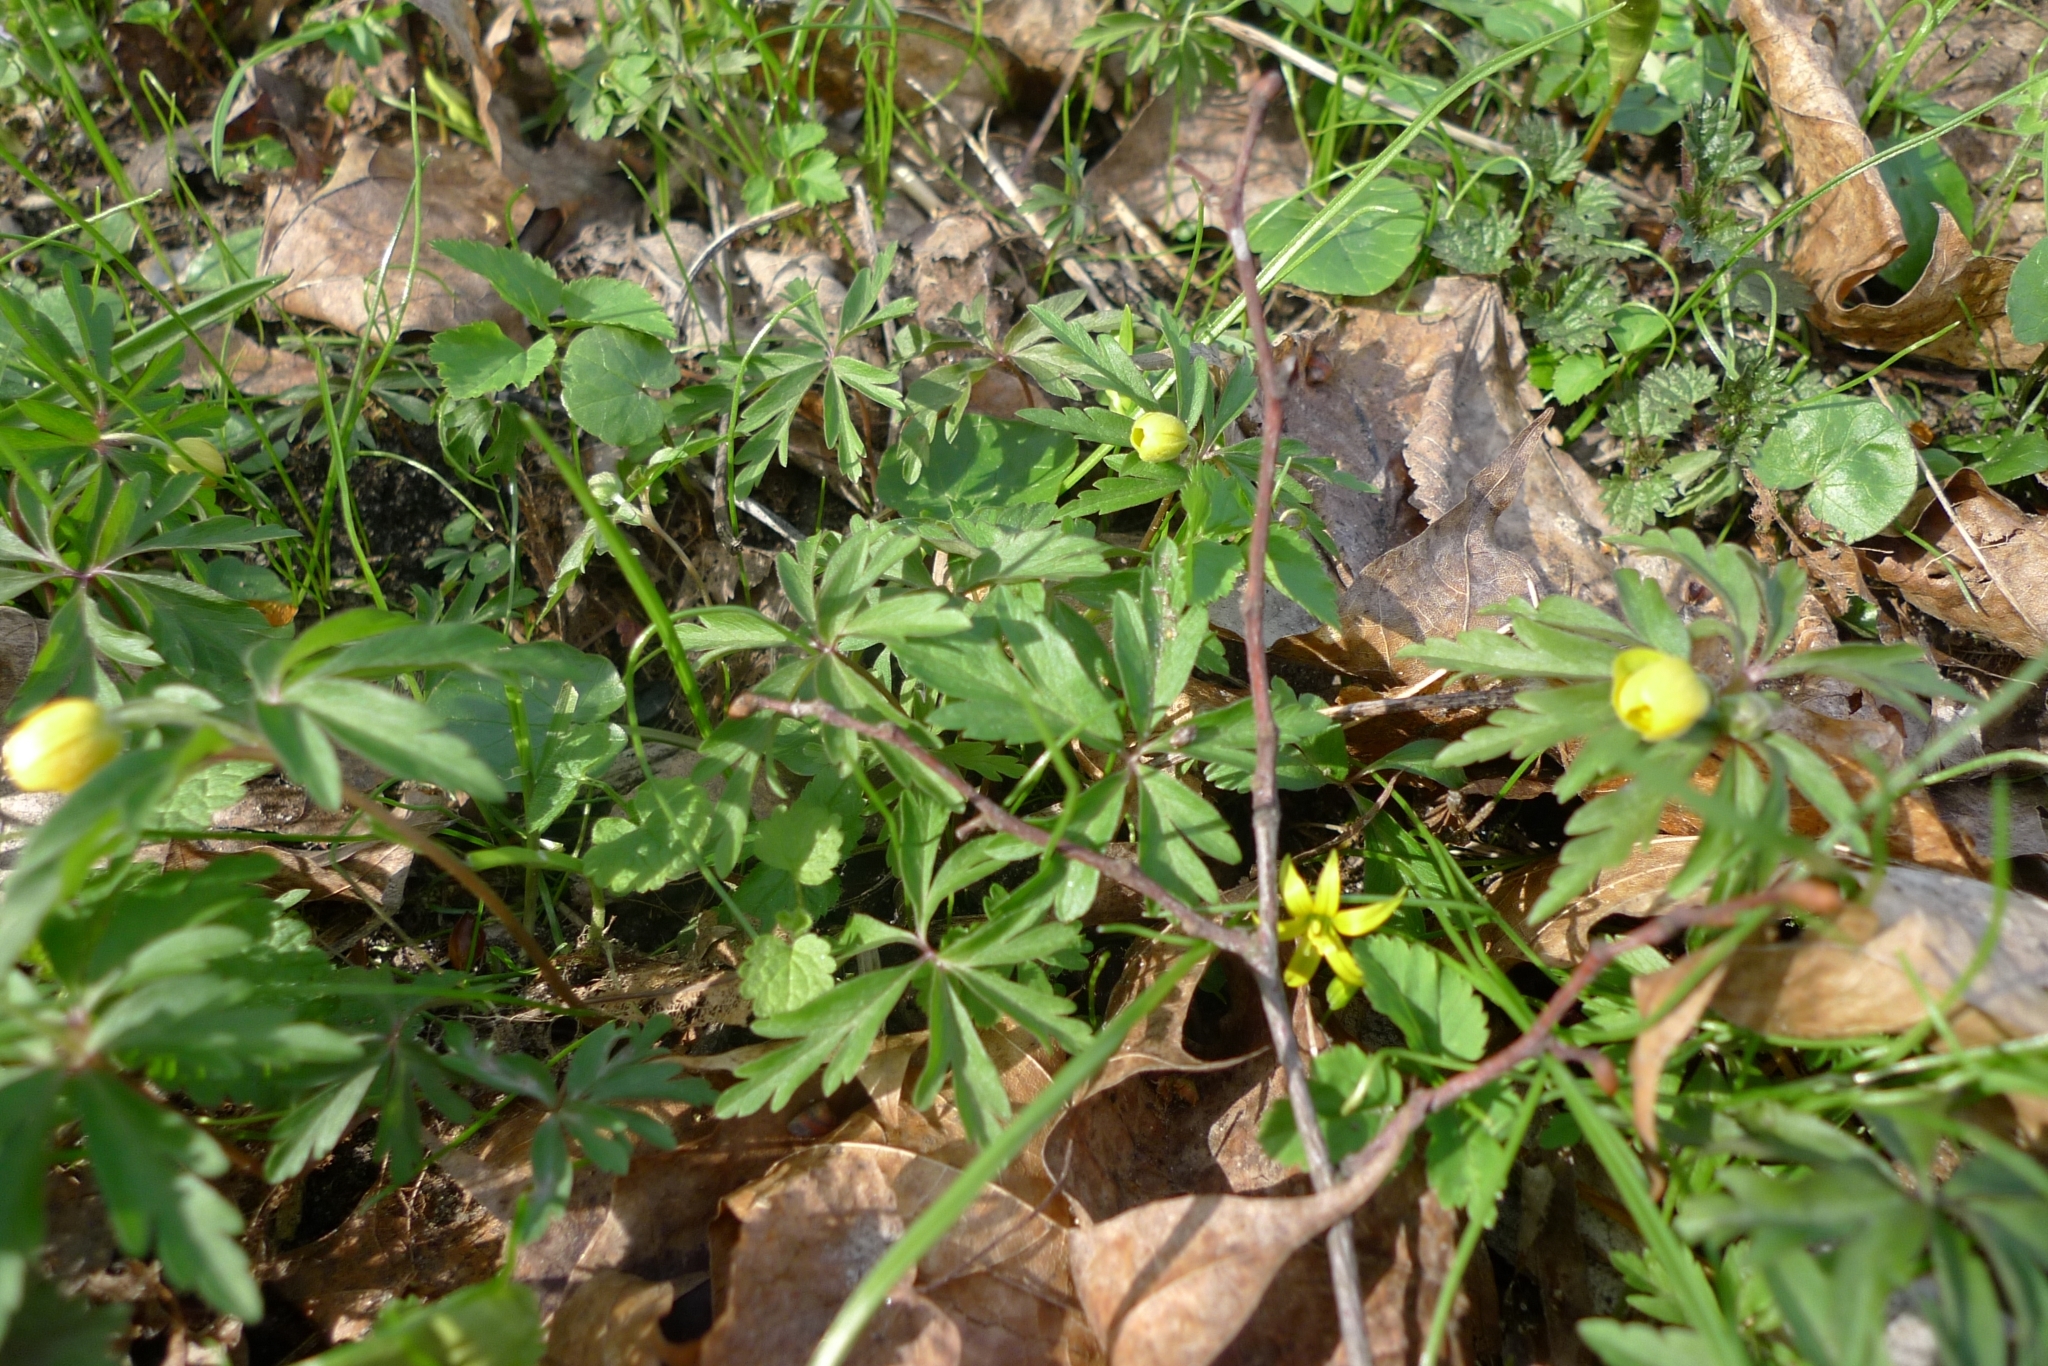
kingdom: Plantae
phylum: Tracheophyta
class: Magnoliopsida
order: Ranunculales
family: Ranunculaceae
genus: Anemone
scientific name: Anemone ranunculoides
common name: Yellow anemone
